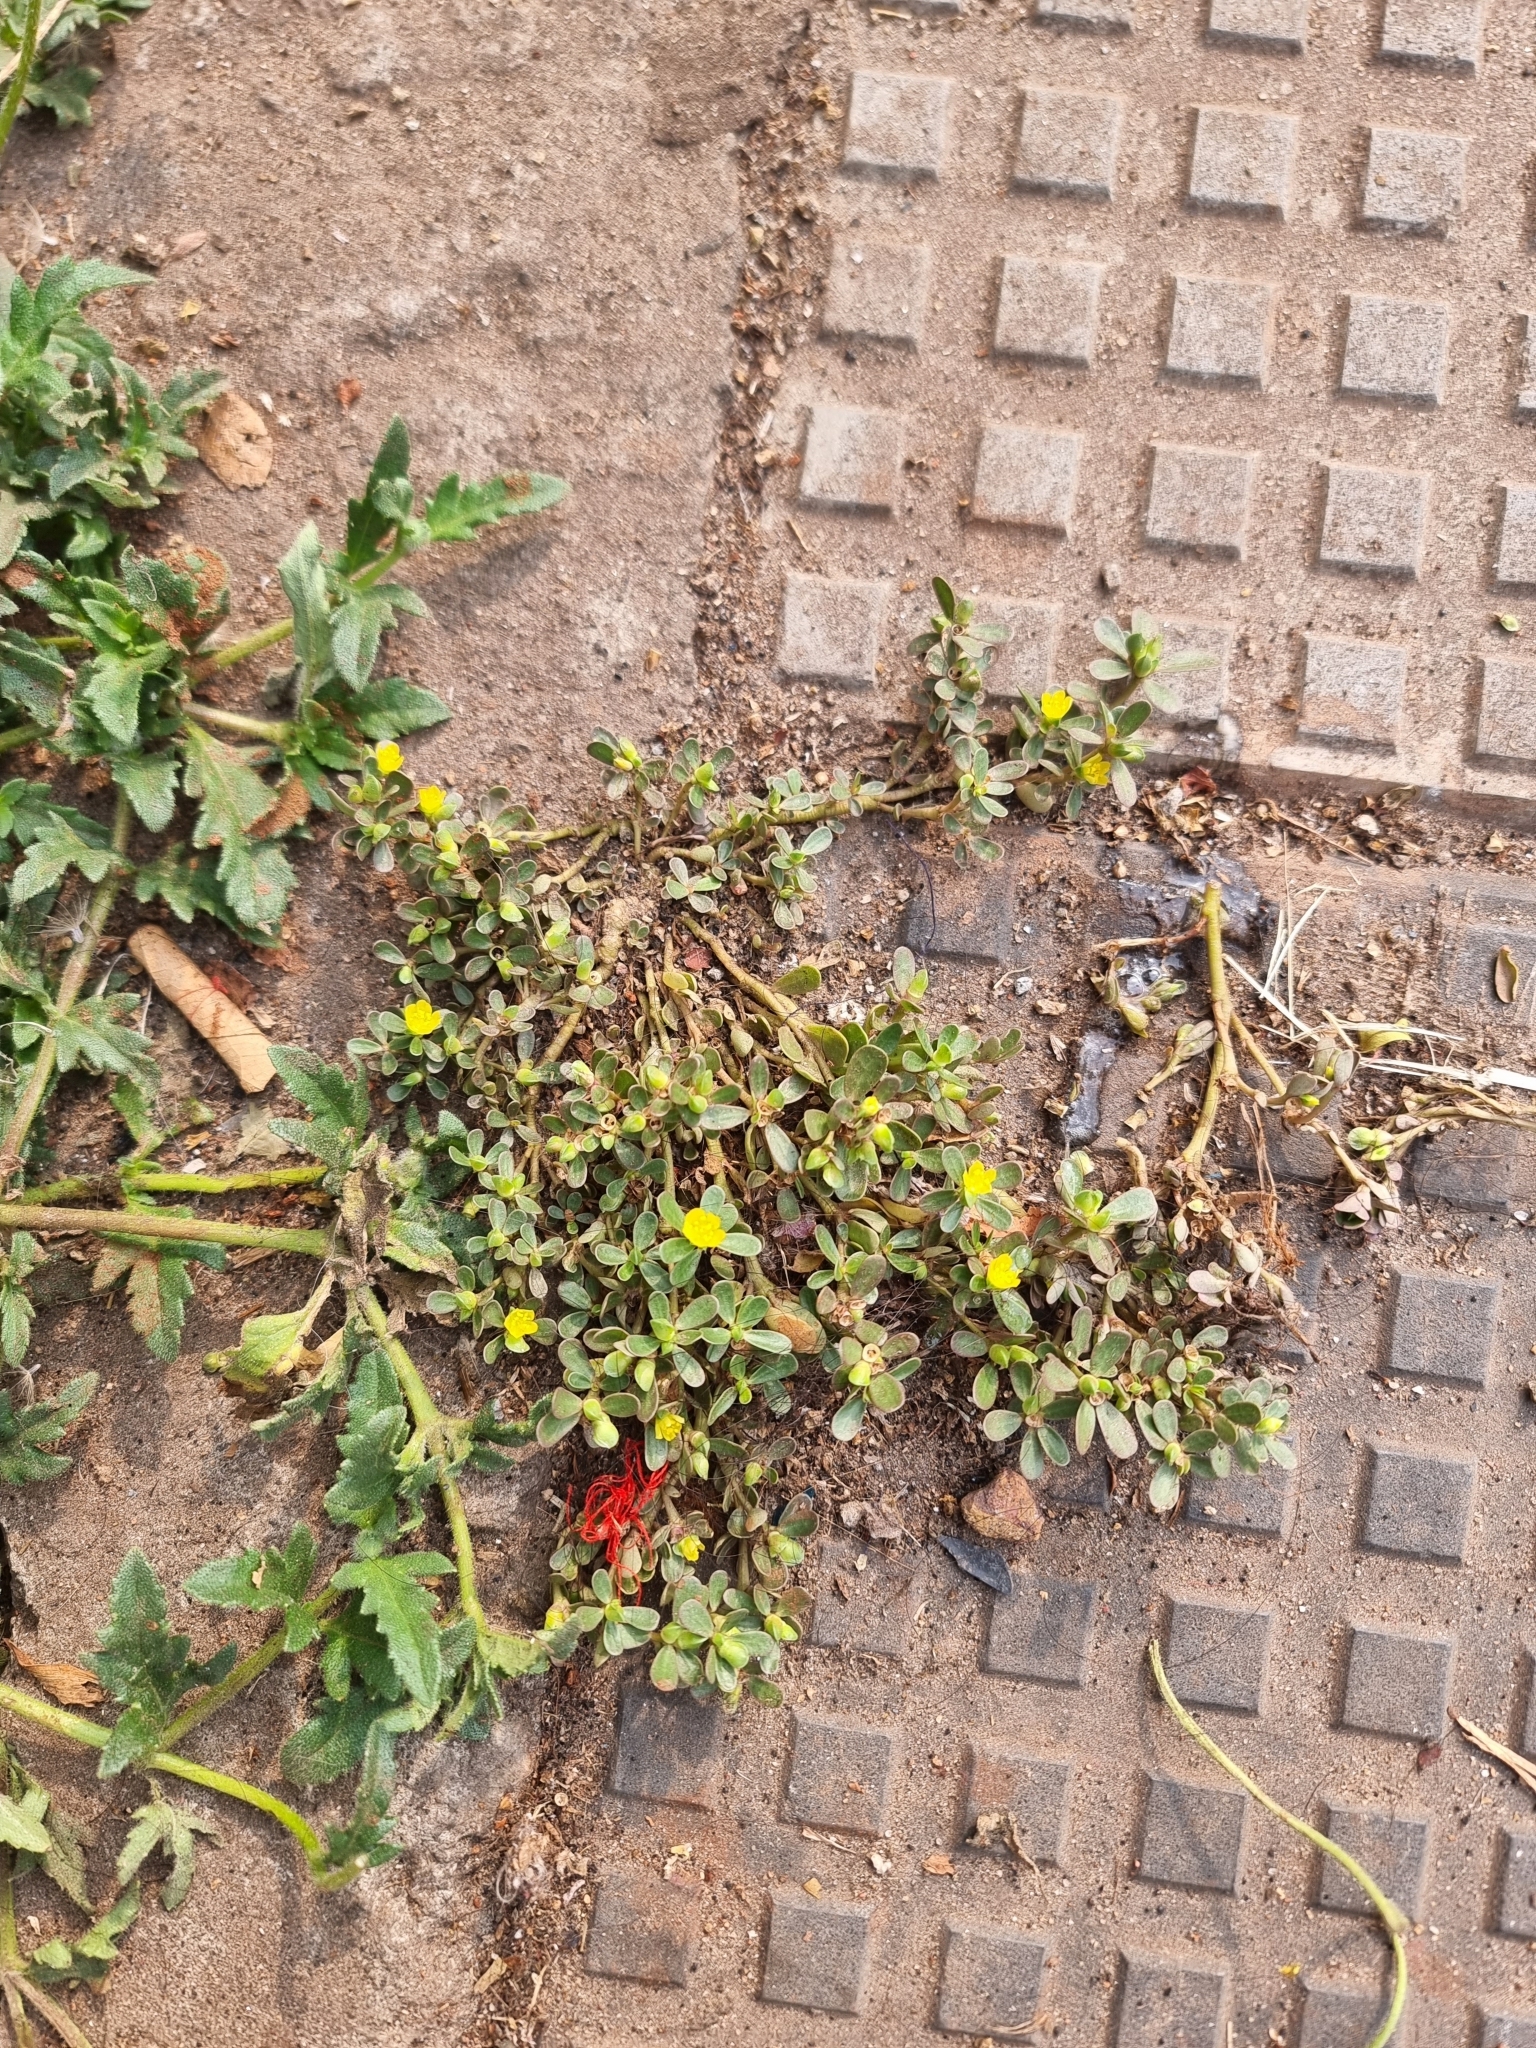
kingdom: Plantae
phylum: Tracheophyta
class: Magnoliopsida
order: Caryophyllales
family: Portulacaceae
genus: Portulaca
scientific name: Portulaca oleracea
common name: Common purslane
